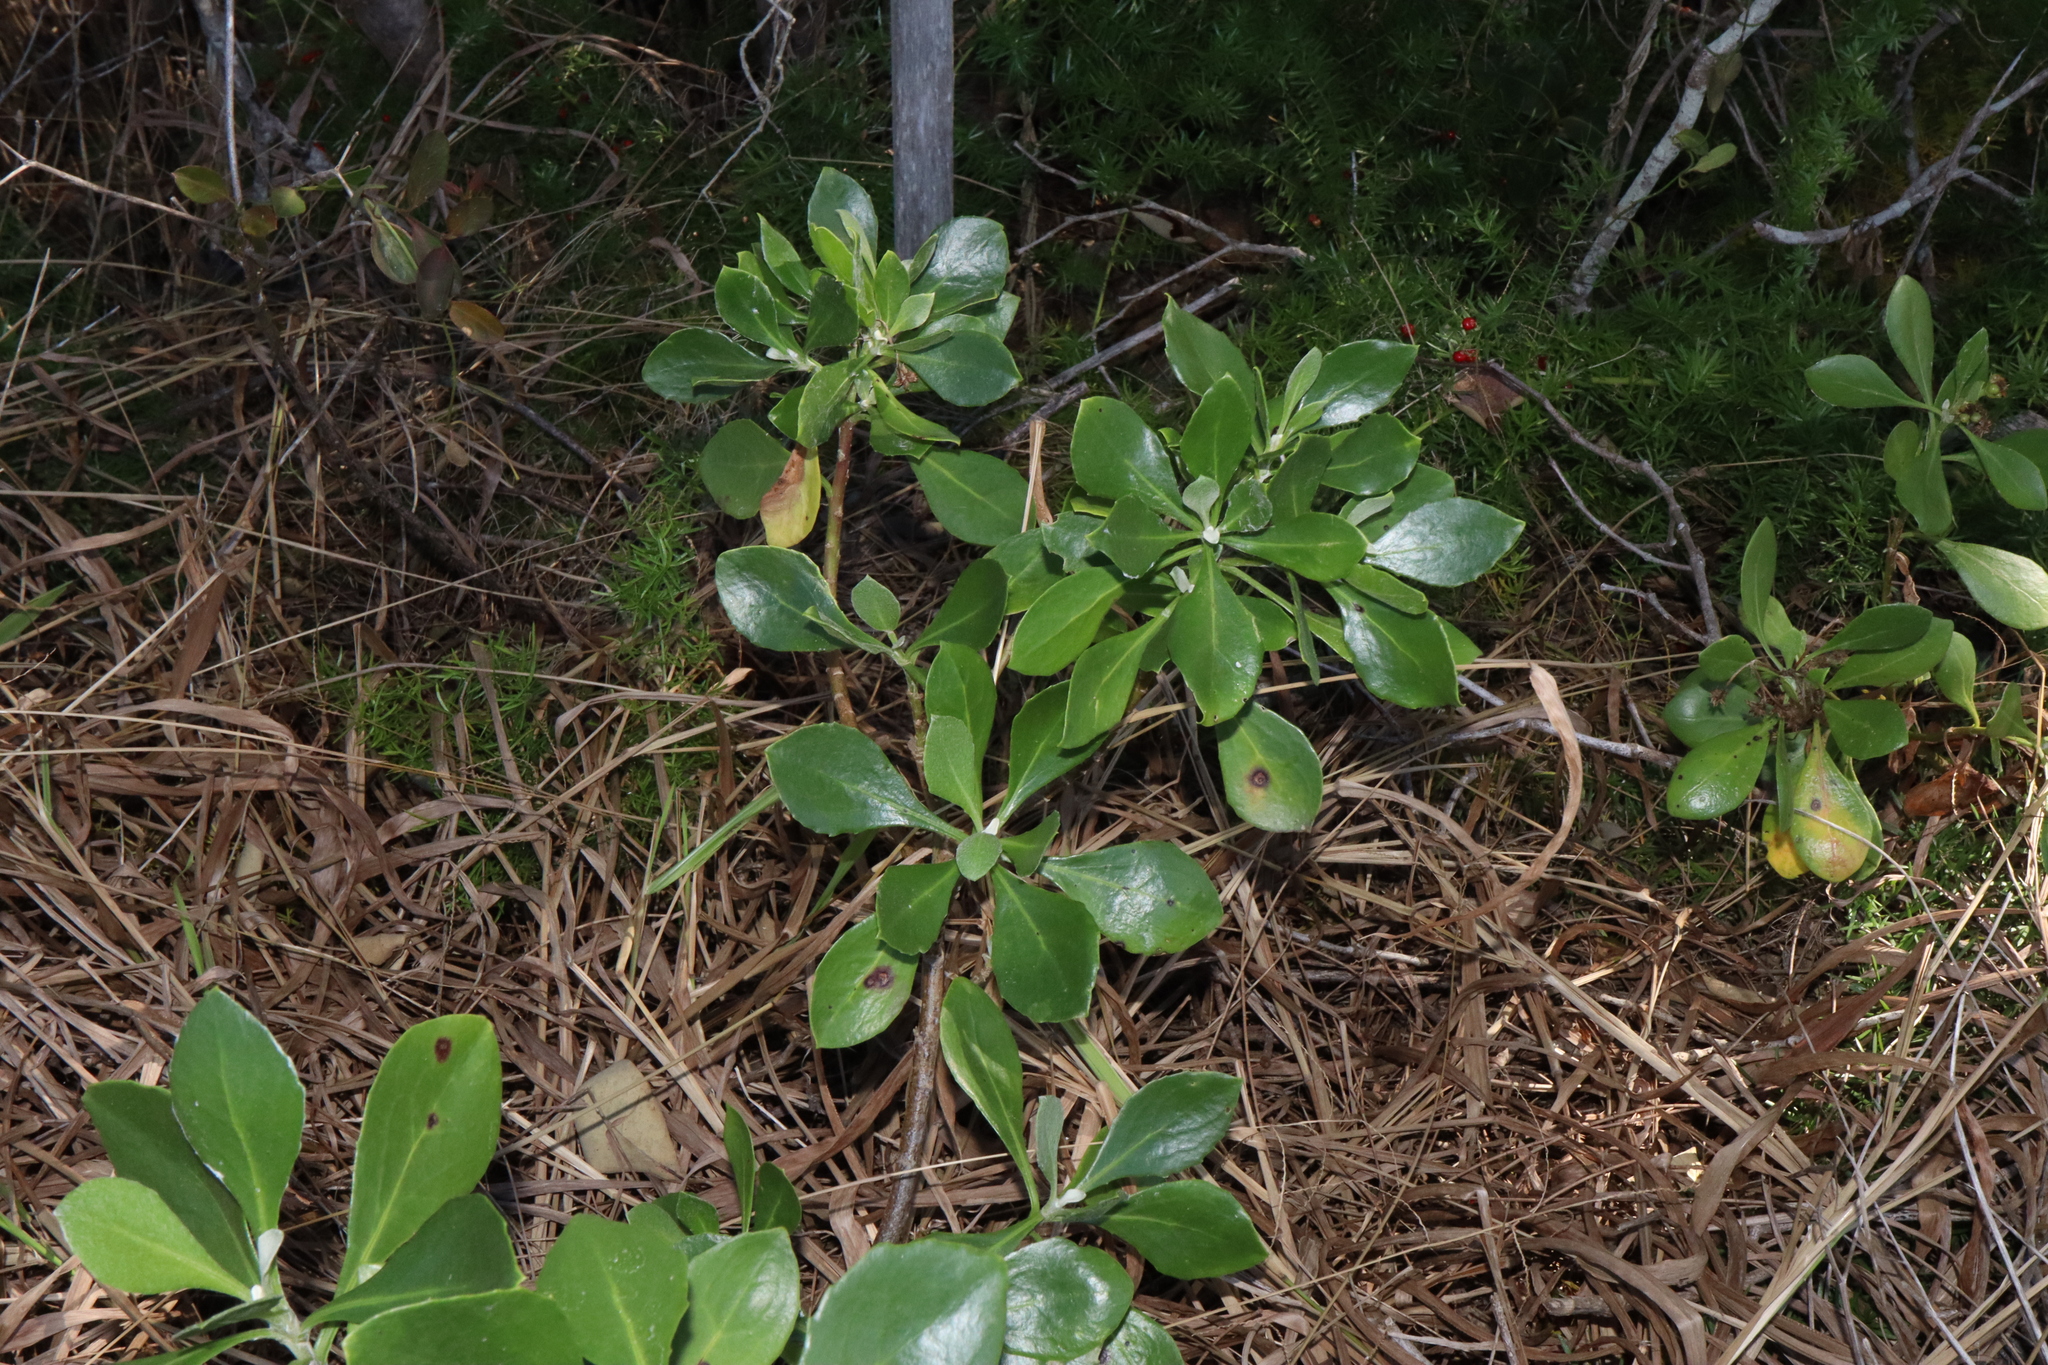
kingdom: Plantae
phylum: Tracheophyta
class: Magnoliopsida
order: Asterales
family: Asteraceae
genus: Osteospermum
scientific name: Osteospermum moniliferum
